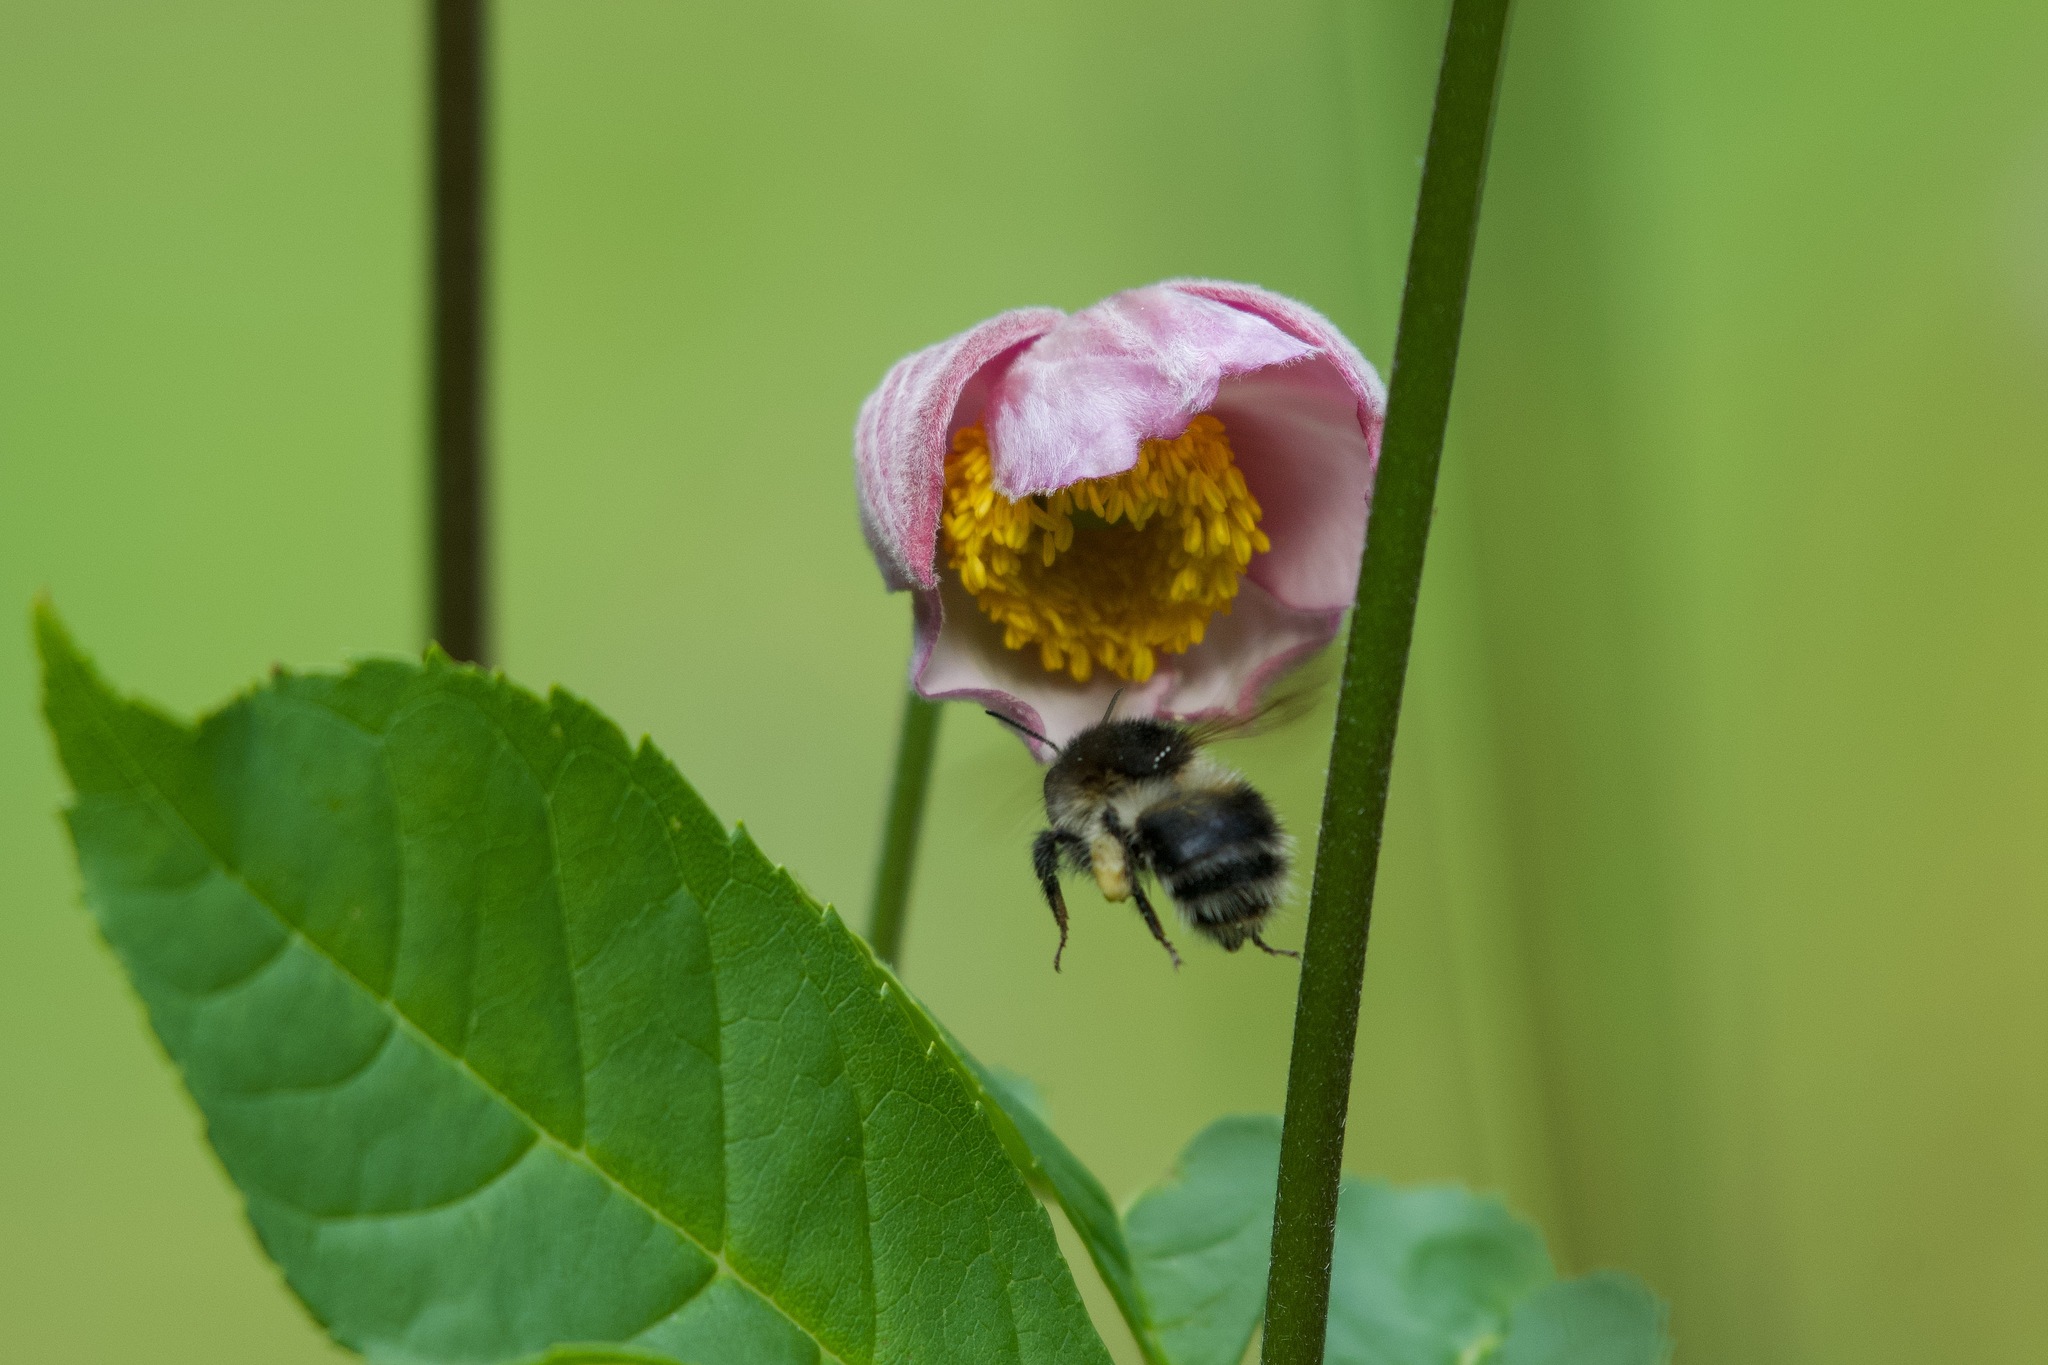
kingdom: Animalia
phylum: Arthropoda
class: Insecta
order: Hymenoptera
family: Apidae
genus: Bombus
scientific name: Bombus pascuorum
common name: Common carder bee
